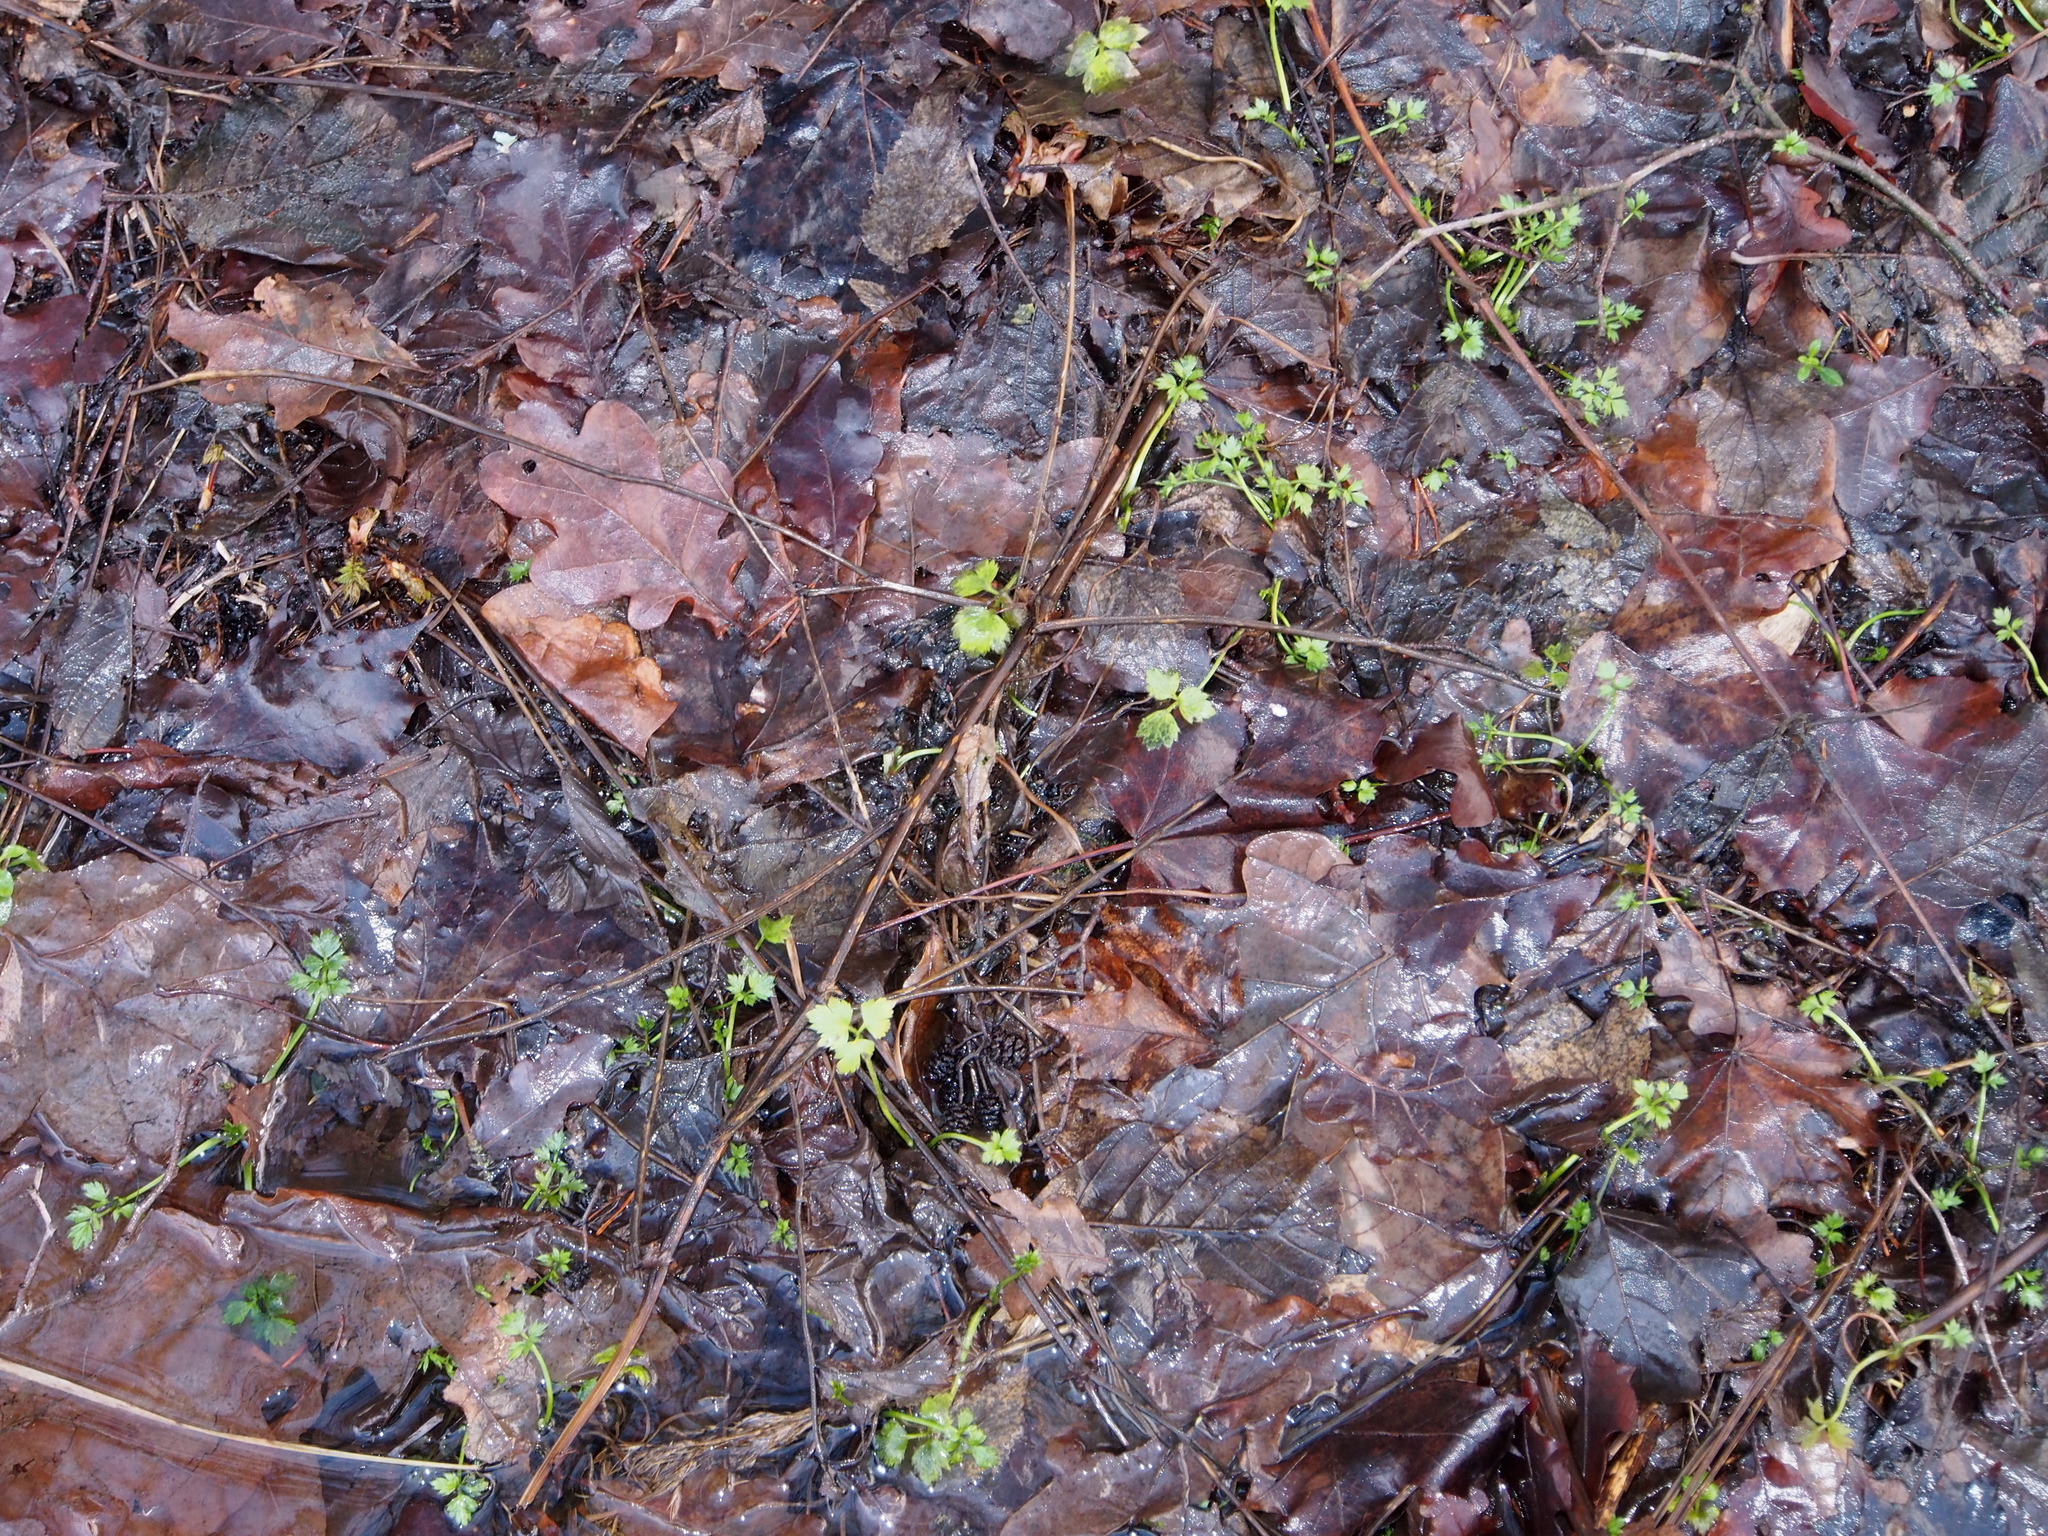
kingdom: Plantae
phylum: Tracheophyta
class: Magnoliopsida
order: Ranunculales
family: Ranunculaceae
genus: Ranunculus
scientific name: Ranunculus repens
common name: Creeping buttercup
